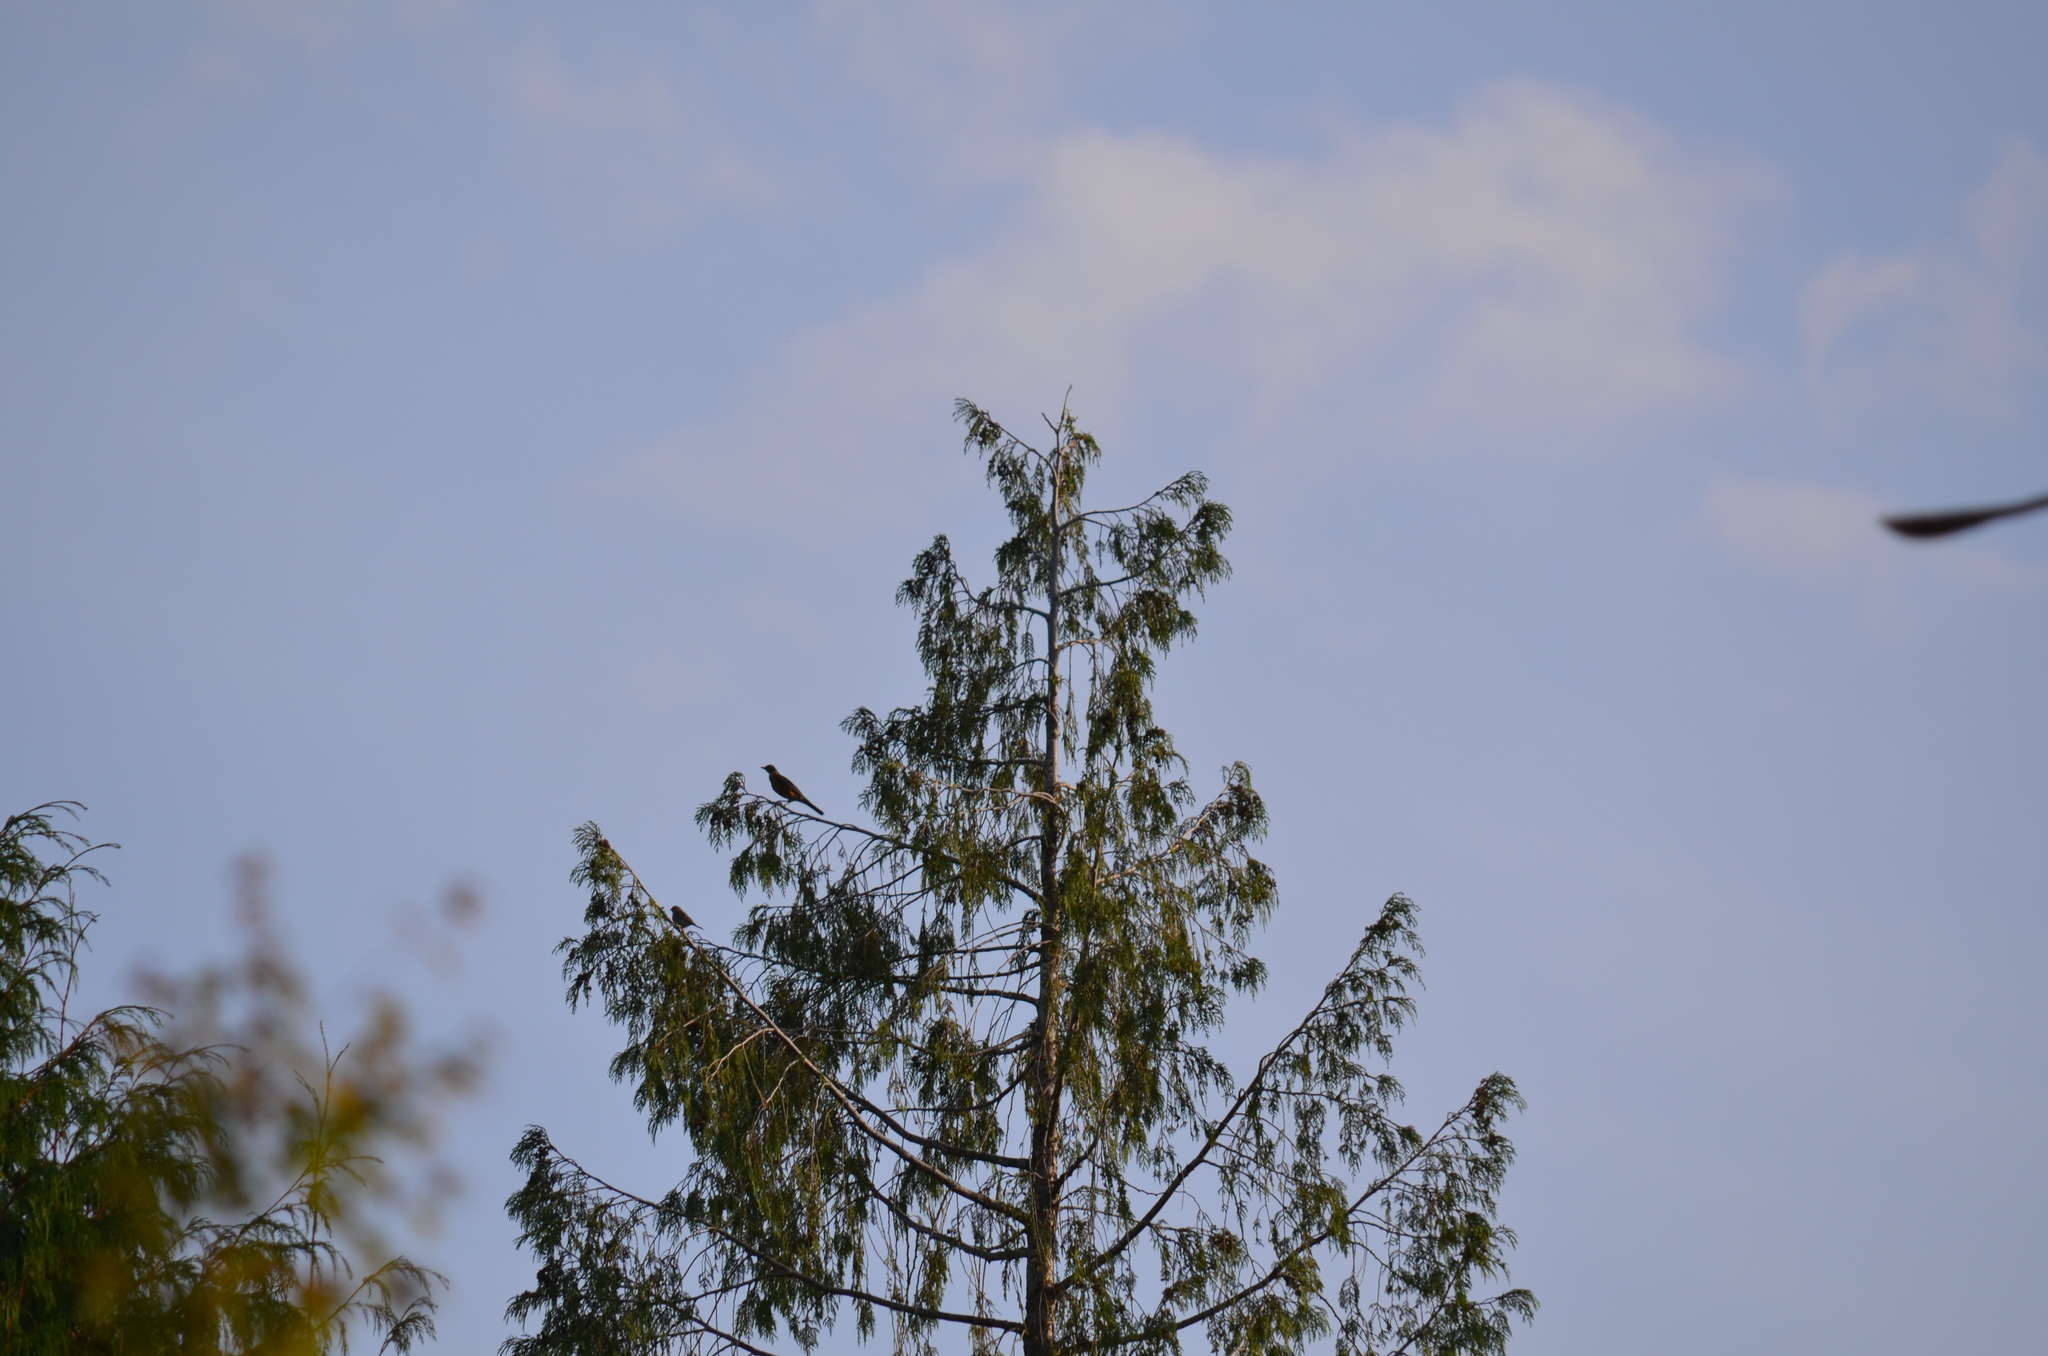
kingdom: Animalia
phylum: Chordata
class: Aves
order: Passeriformes
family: Turdidae
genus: Turdus
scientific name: Turdus migratorius
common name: American robin
